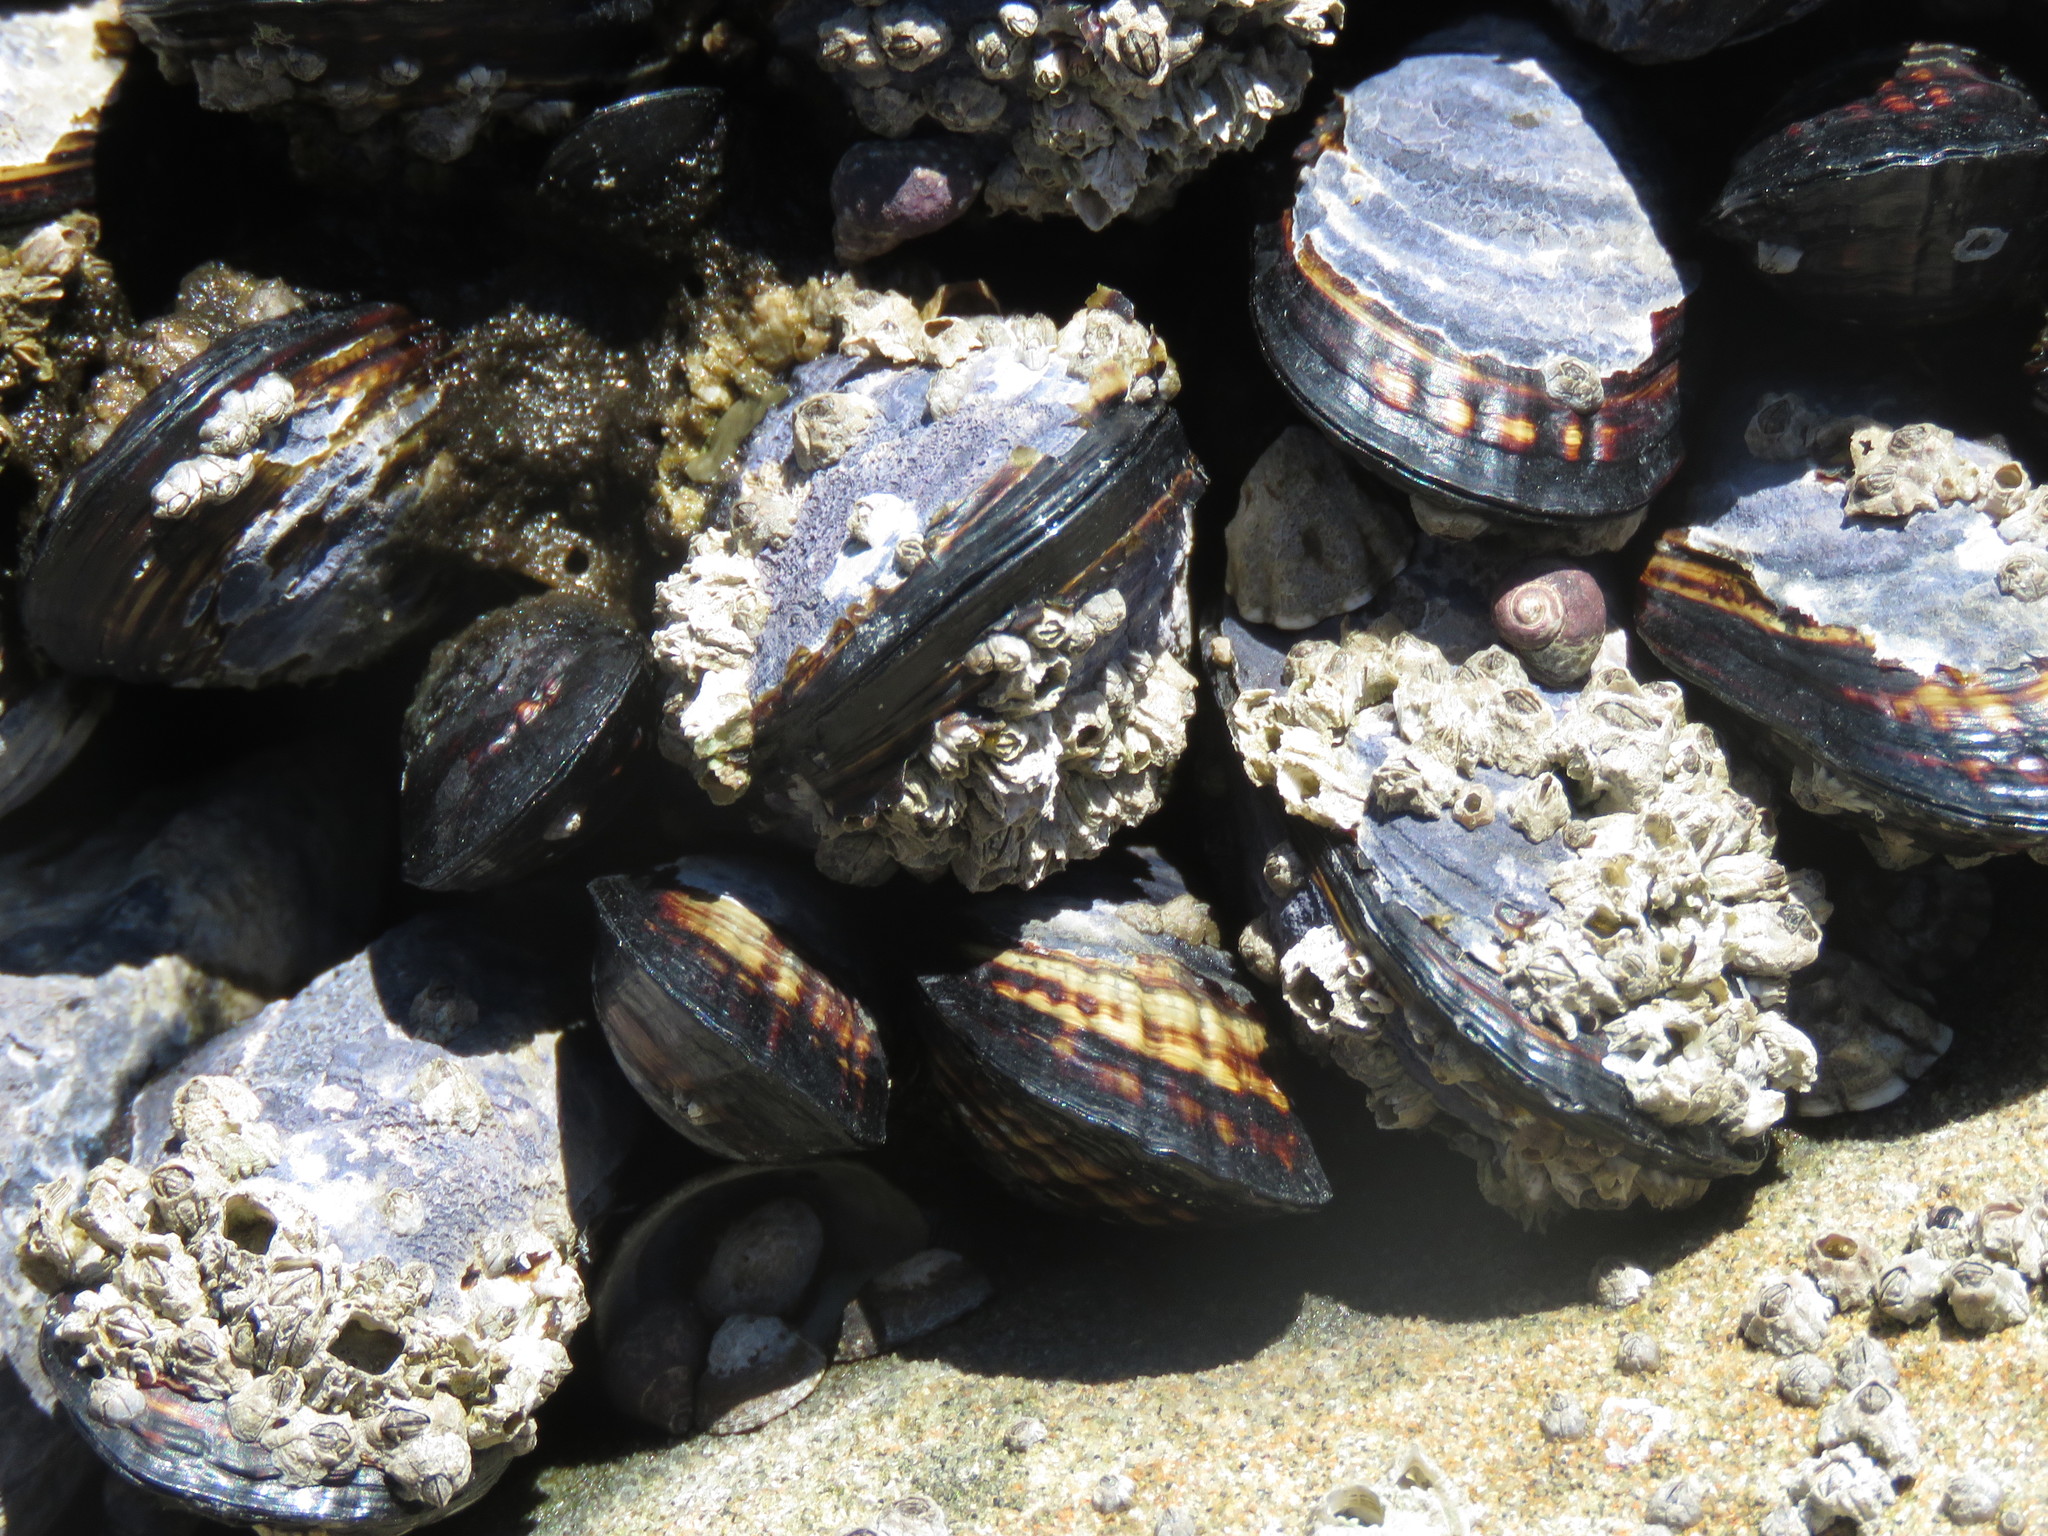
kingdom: Animalia
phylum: Mollusca
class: Bivalvia
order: Mytilida
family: Mytilidae
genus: Mytilus
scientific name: Mytilus californianus
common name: California mussel
